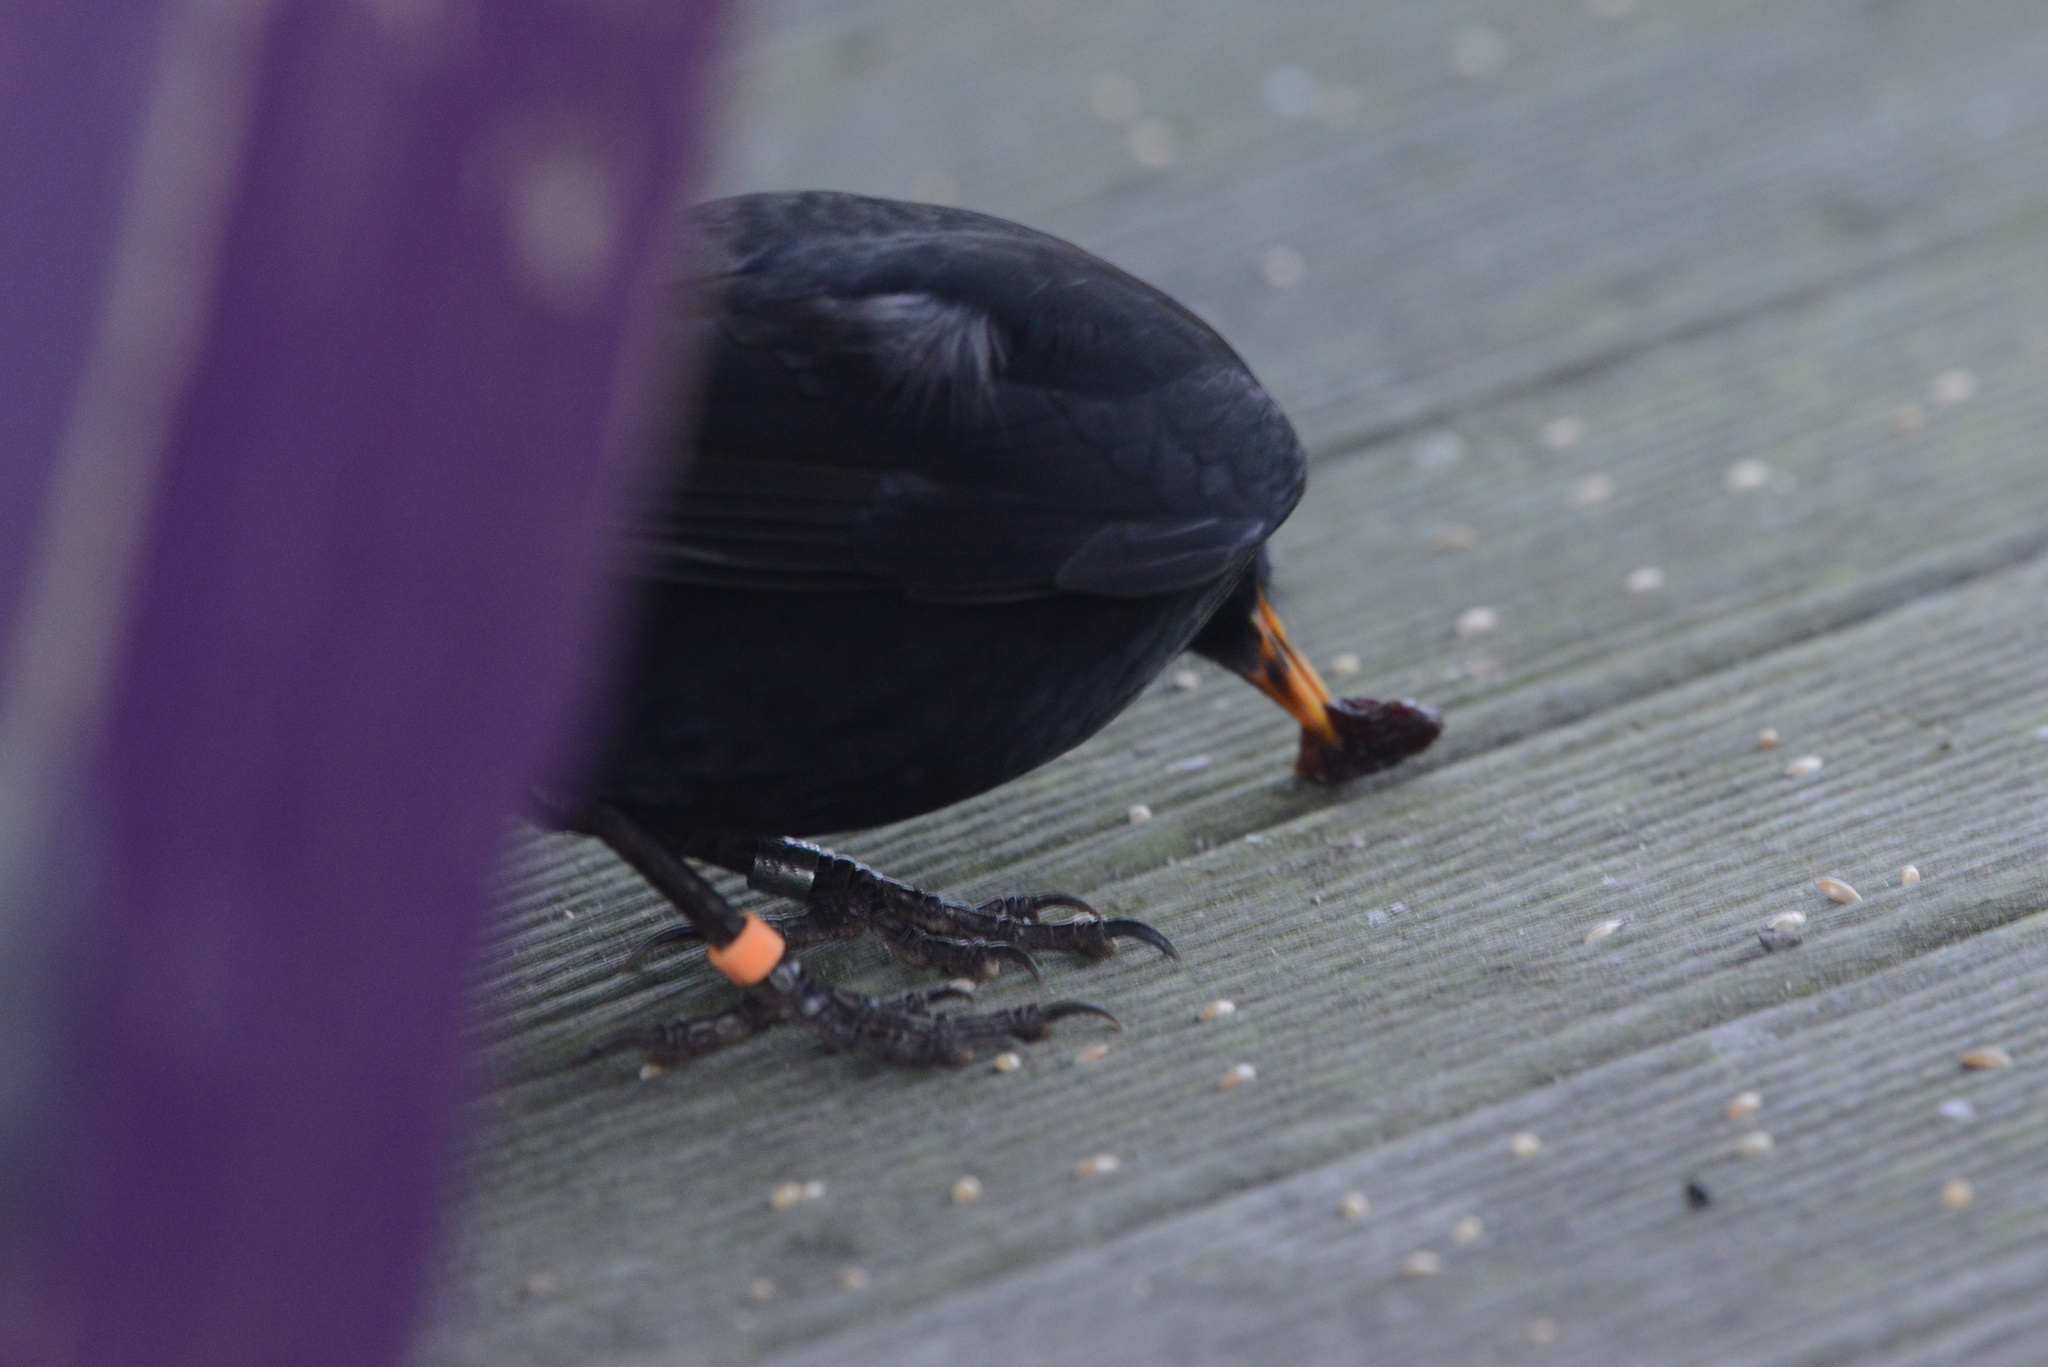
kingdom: Animalia
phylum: Chordata
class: Aves
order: Passeriformes
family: Turdidae
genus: Turdus
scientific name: Turdus merula
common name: Common blackbird
